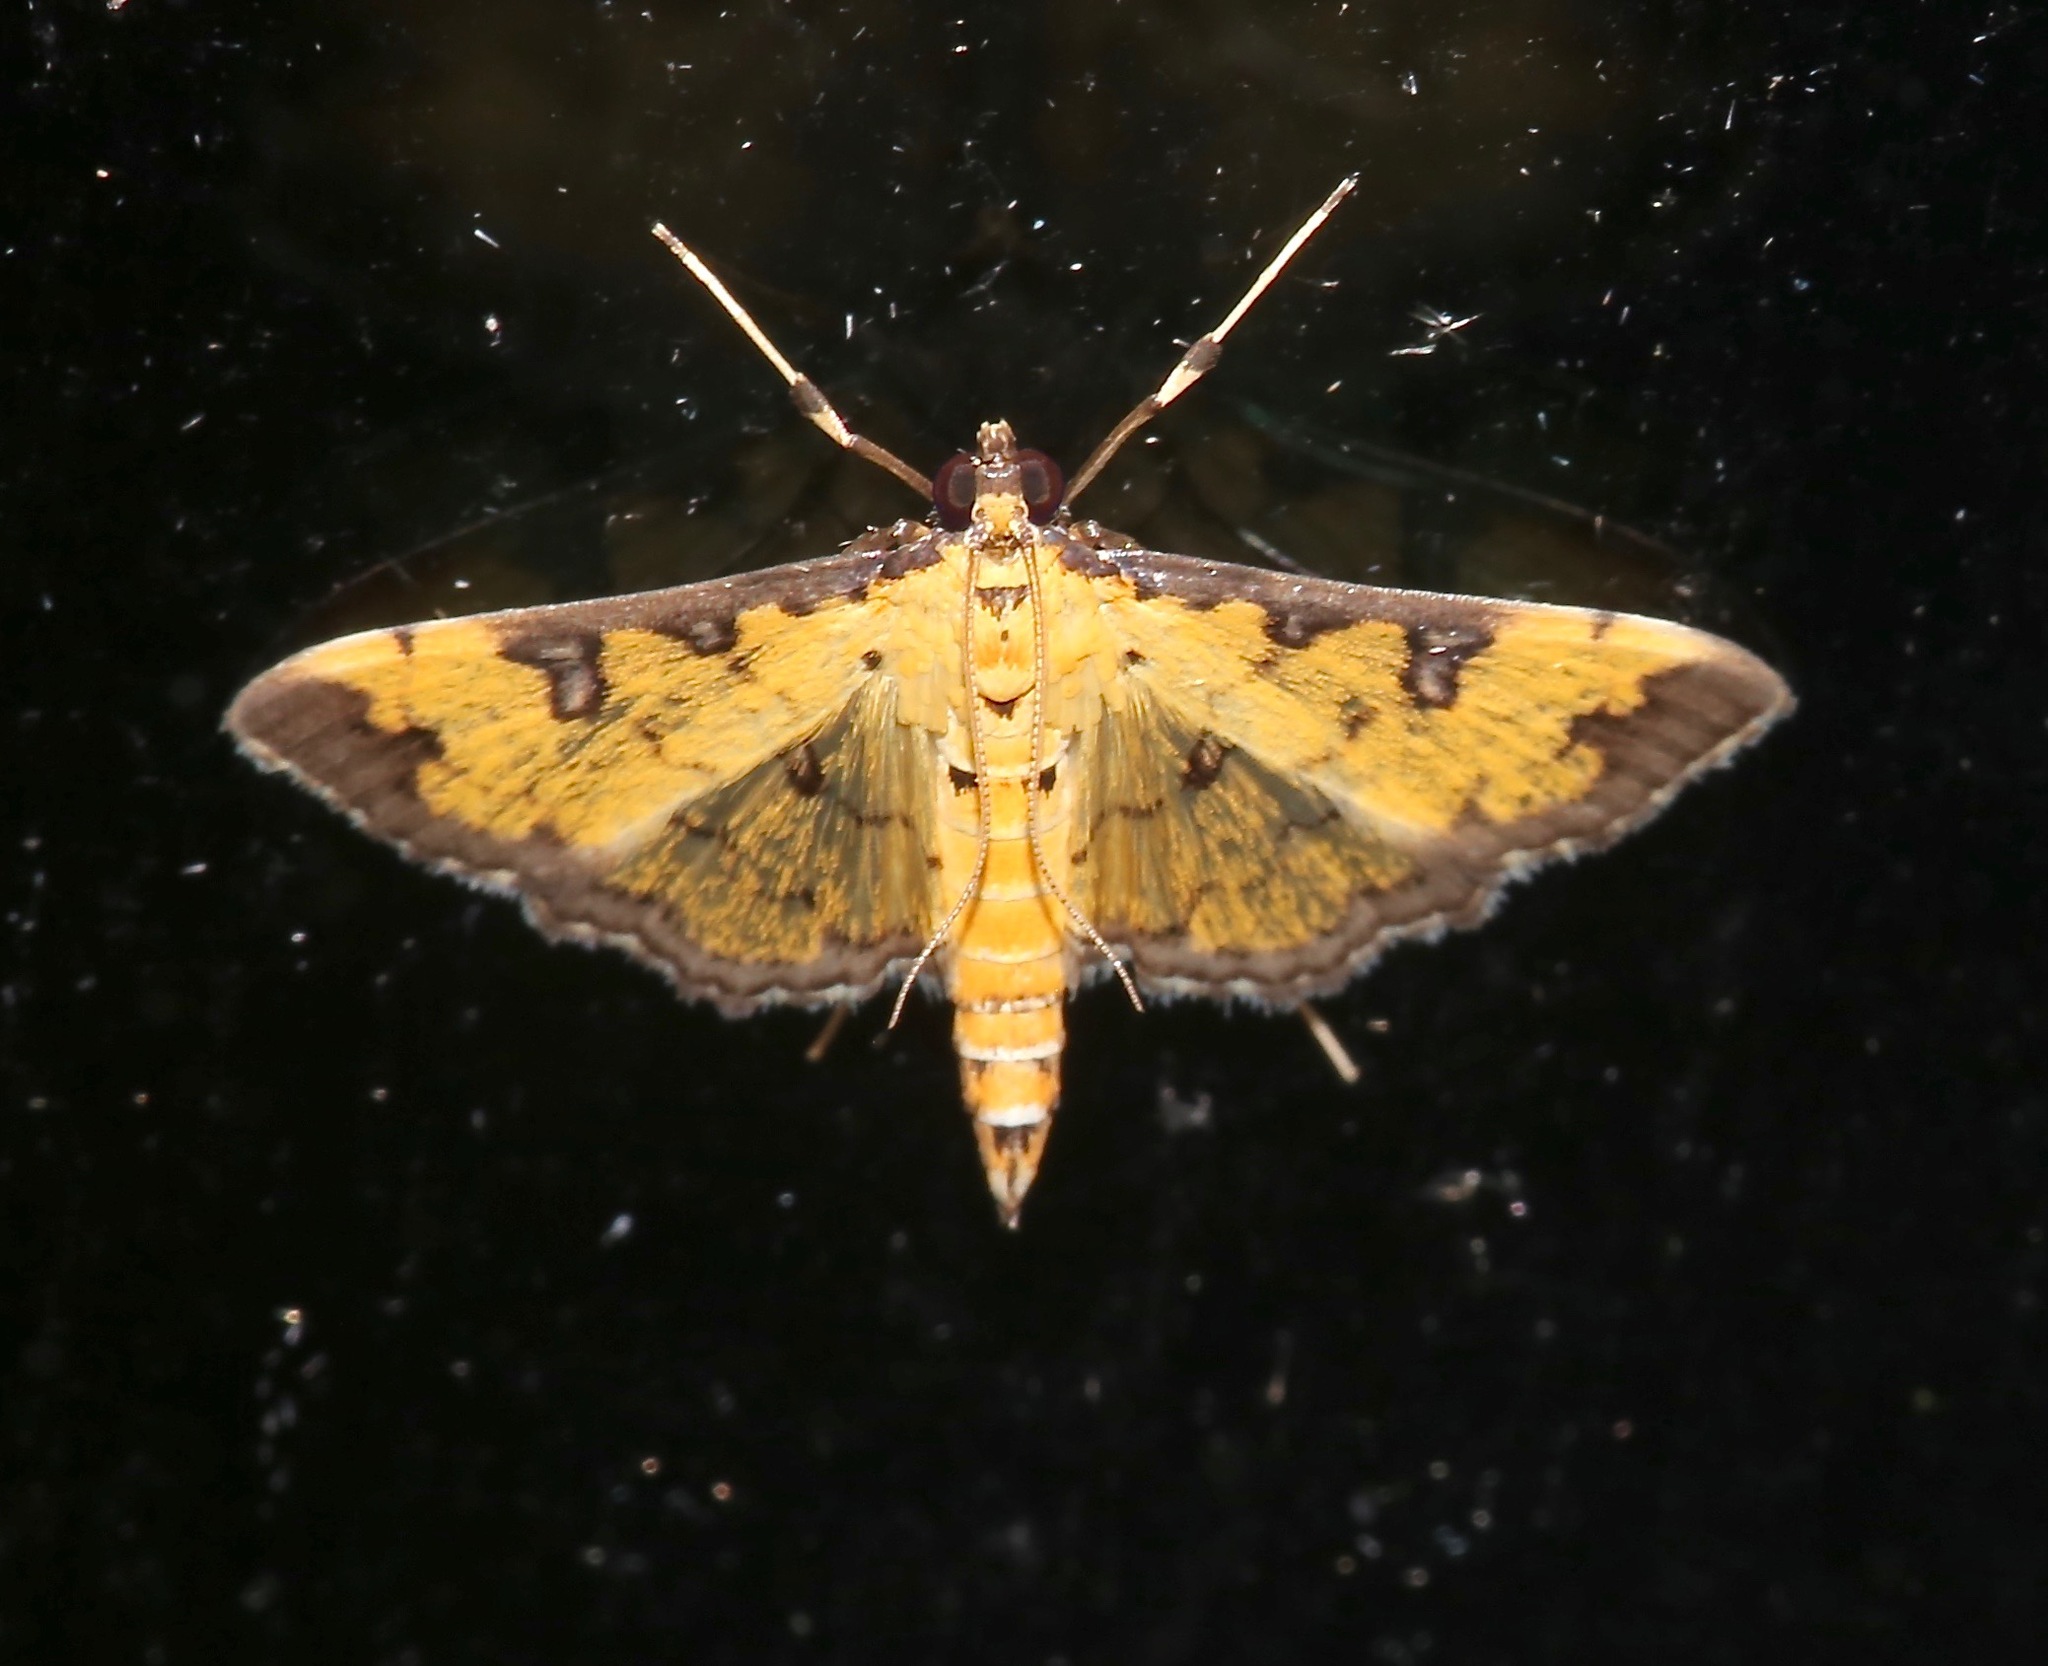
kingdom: Animalia
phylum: Arthropoda
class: Insecta
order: Lepidoptera
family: Crambidae
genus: Ategumia
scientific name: Ategumia ebulealis
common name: Moth
